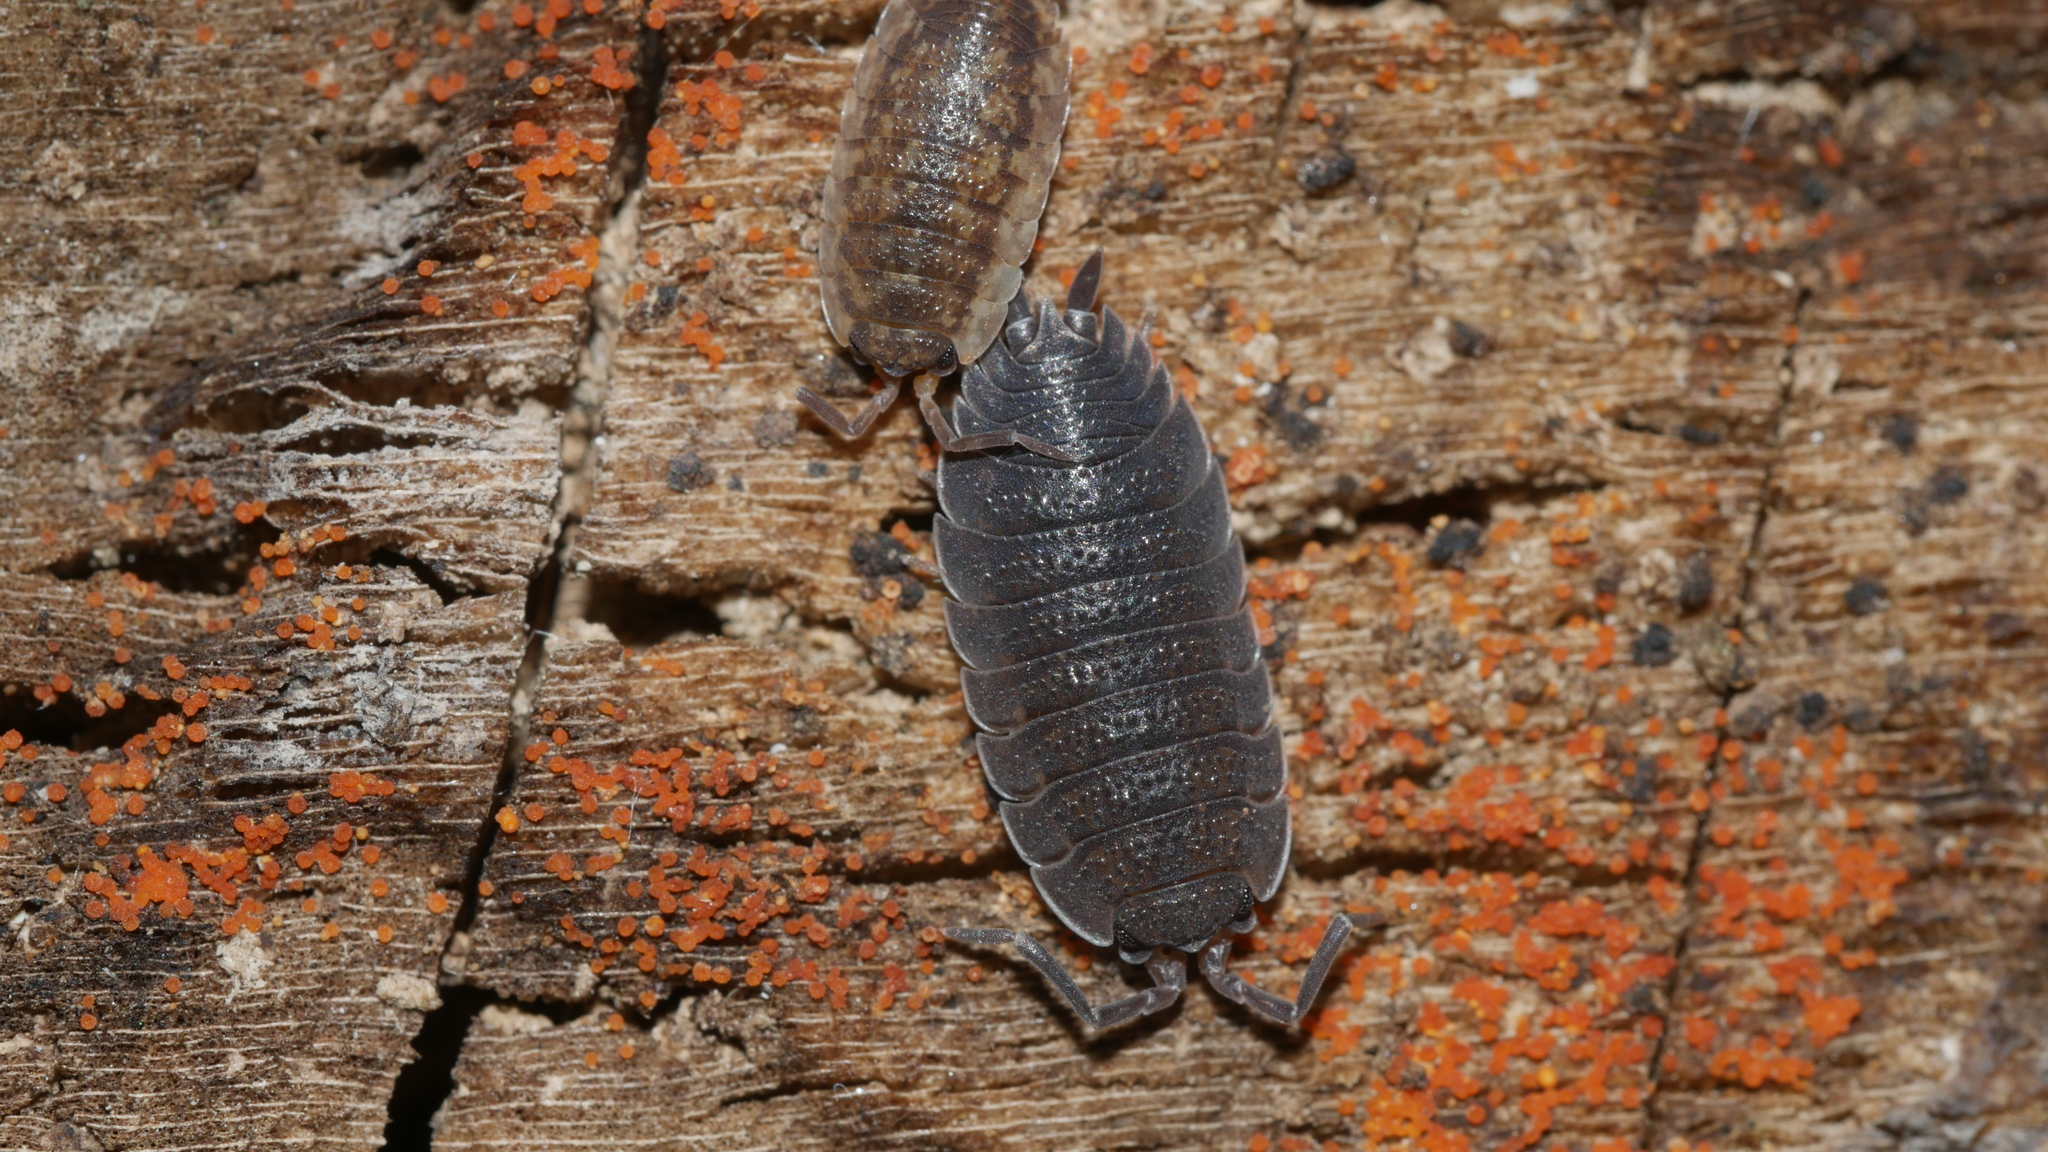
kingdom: Animalia
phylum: Arthropoda
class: Malacostraca
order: Isopoda
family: Porcellionidae
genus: Porcellio
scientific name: Porcellio scaber
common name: Common rough woodlouse
